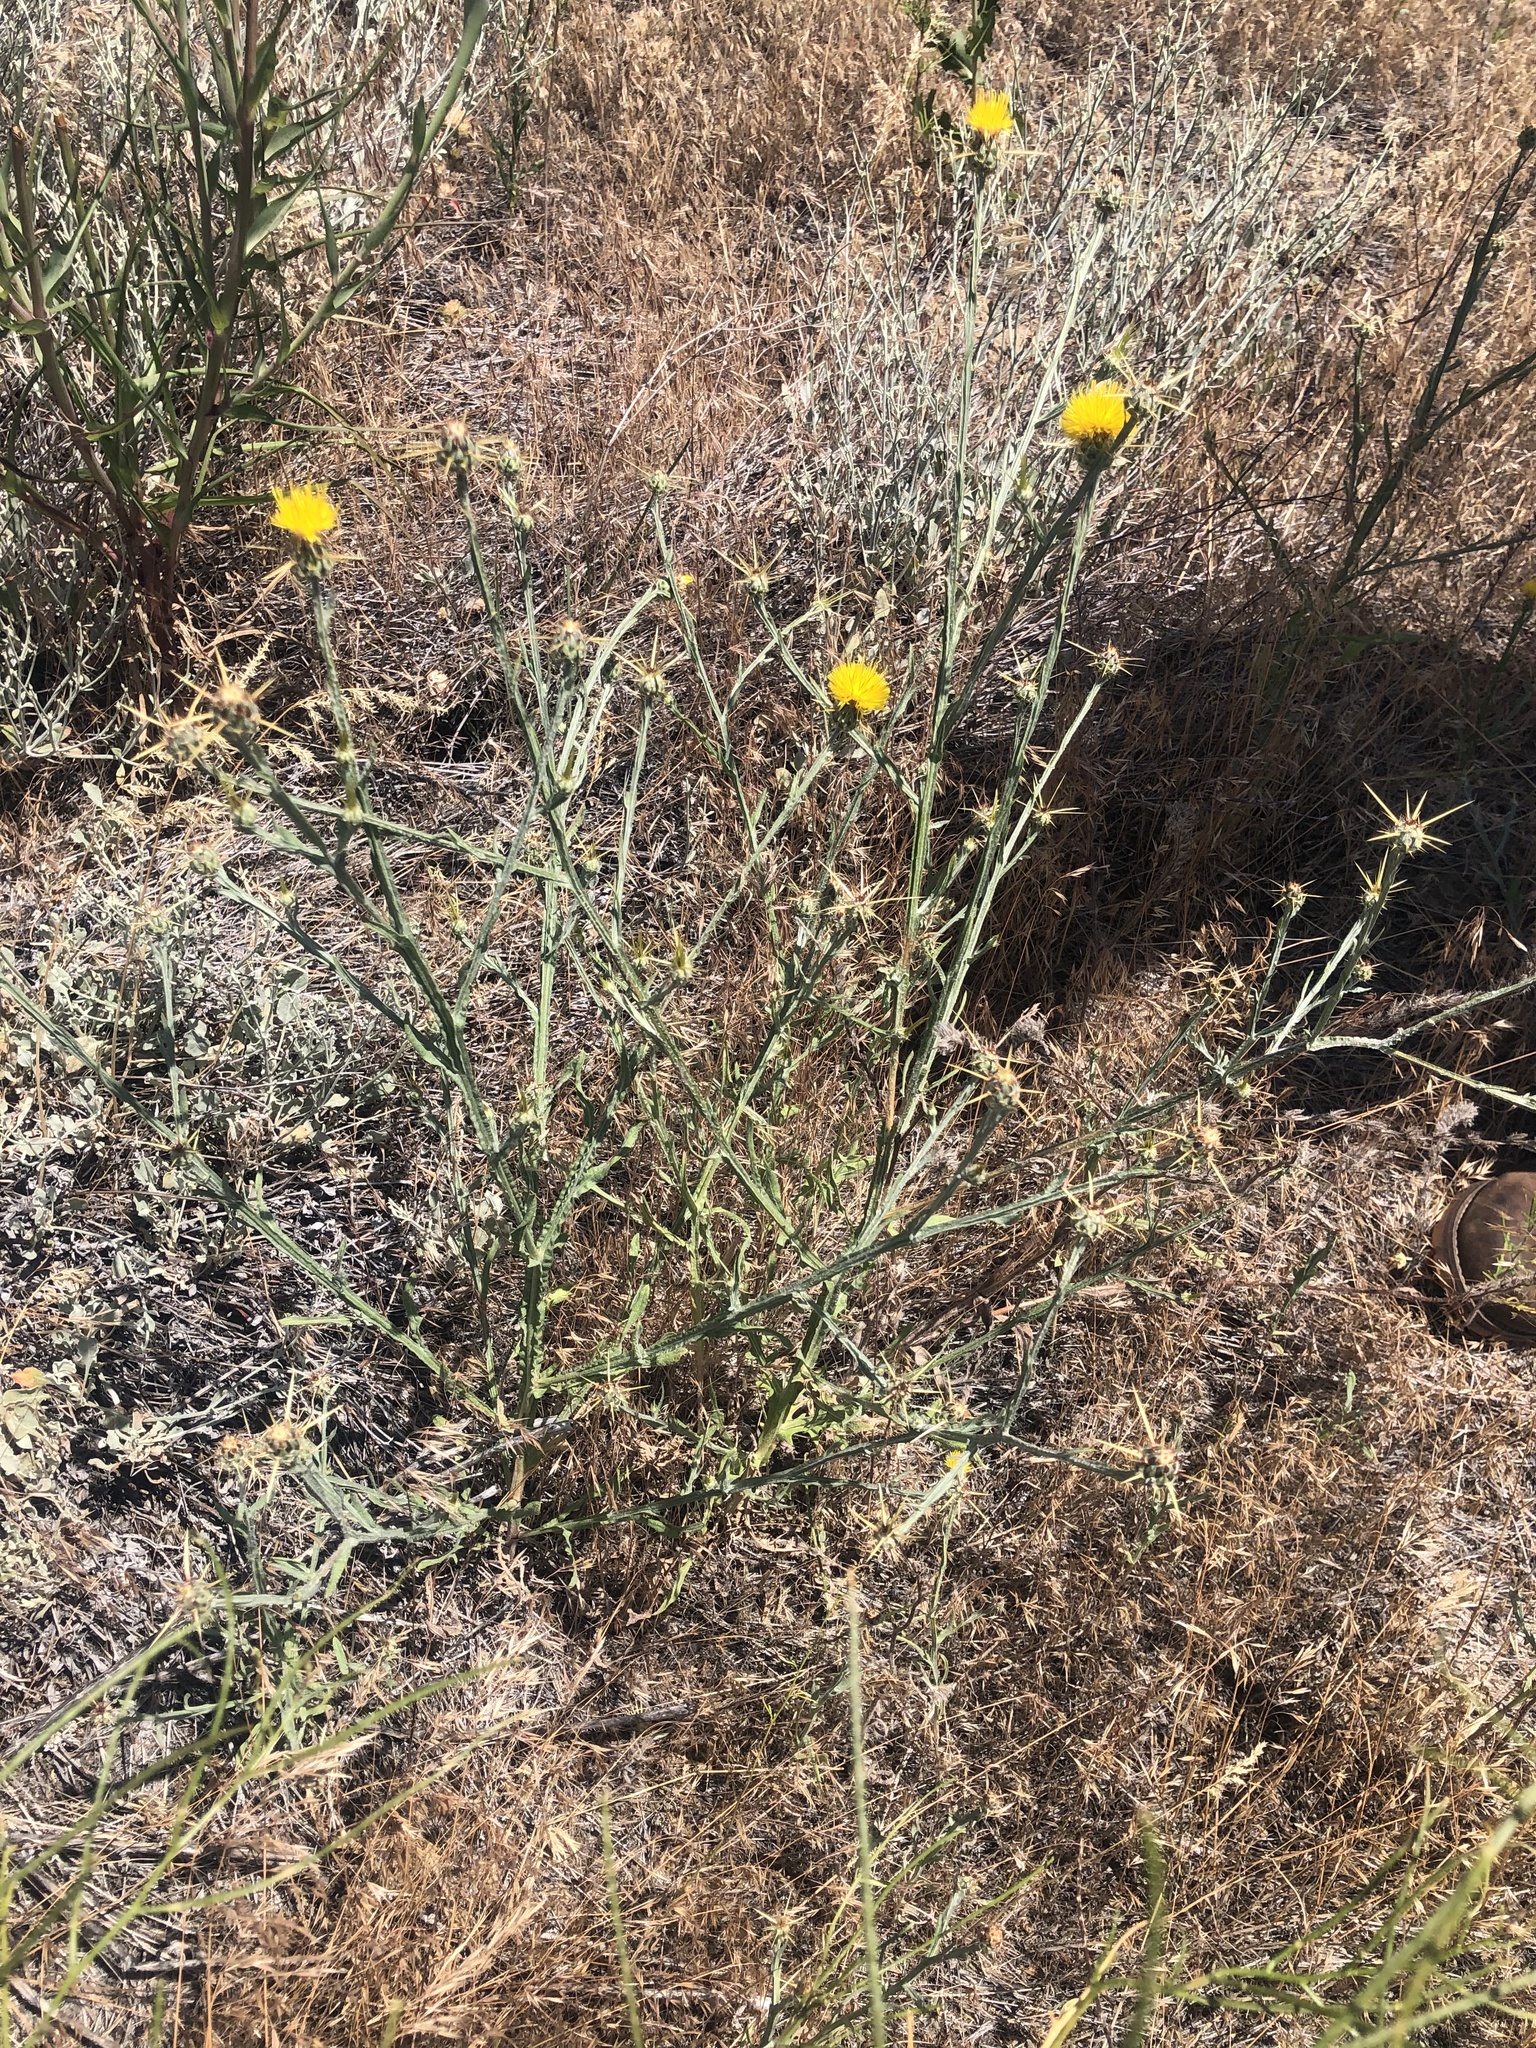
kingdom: Plantae
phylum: Tracheophyta
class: Magnoliopsida
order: Asterales
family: Asteraceae
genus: Centaurea
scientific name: Centaurea solstitialis
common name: Yellow star-thistle
